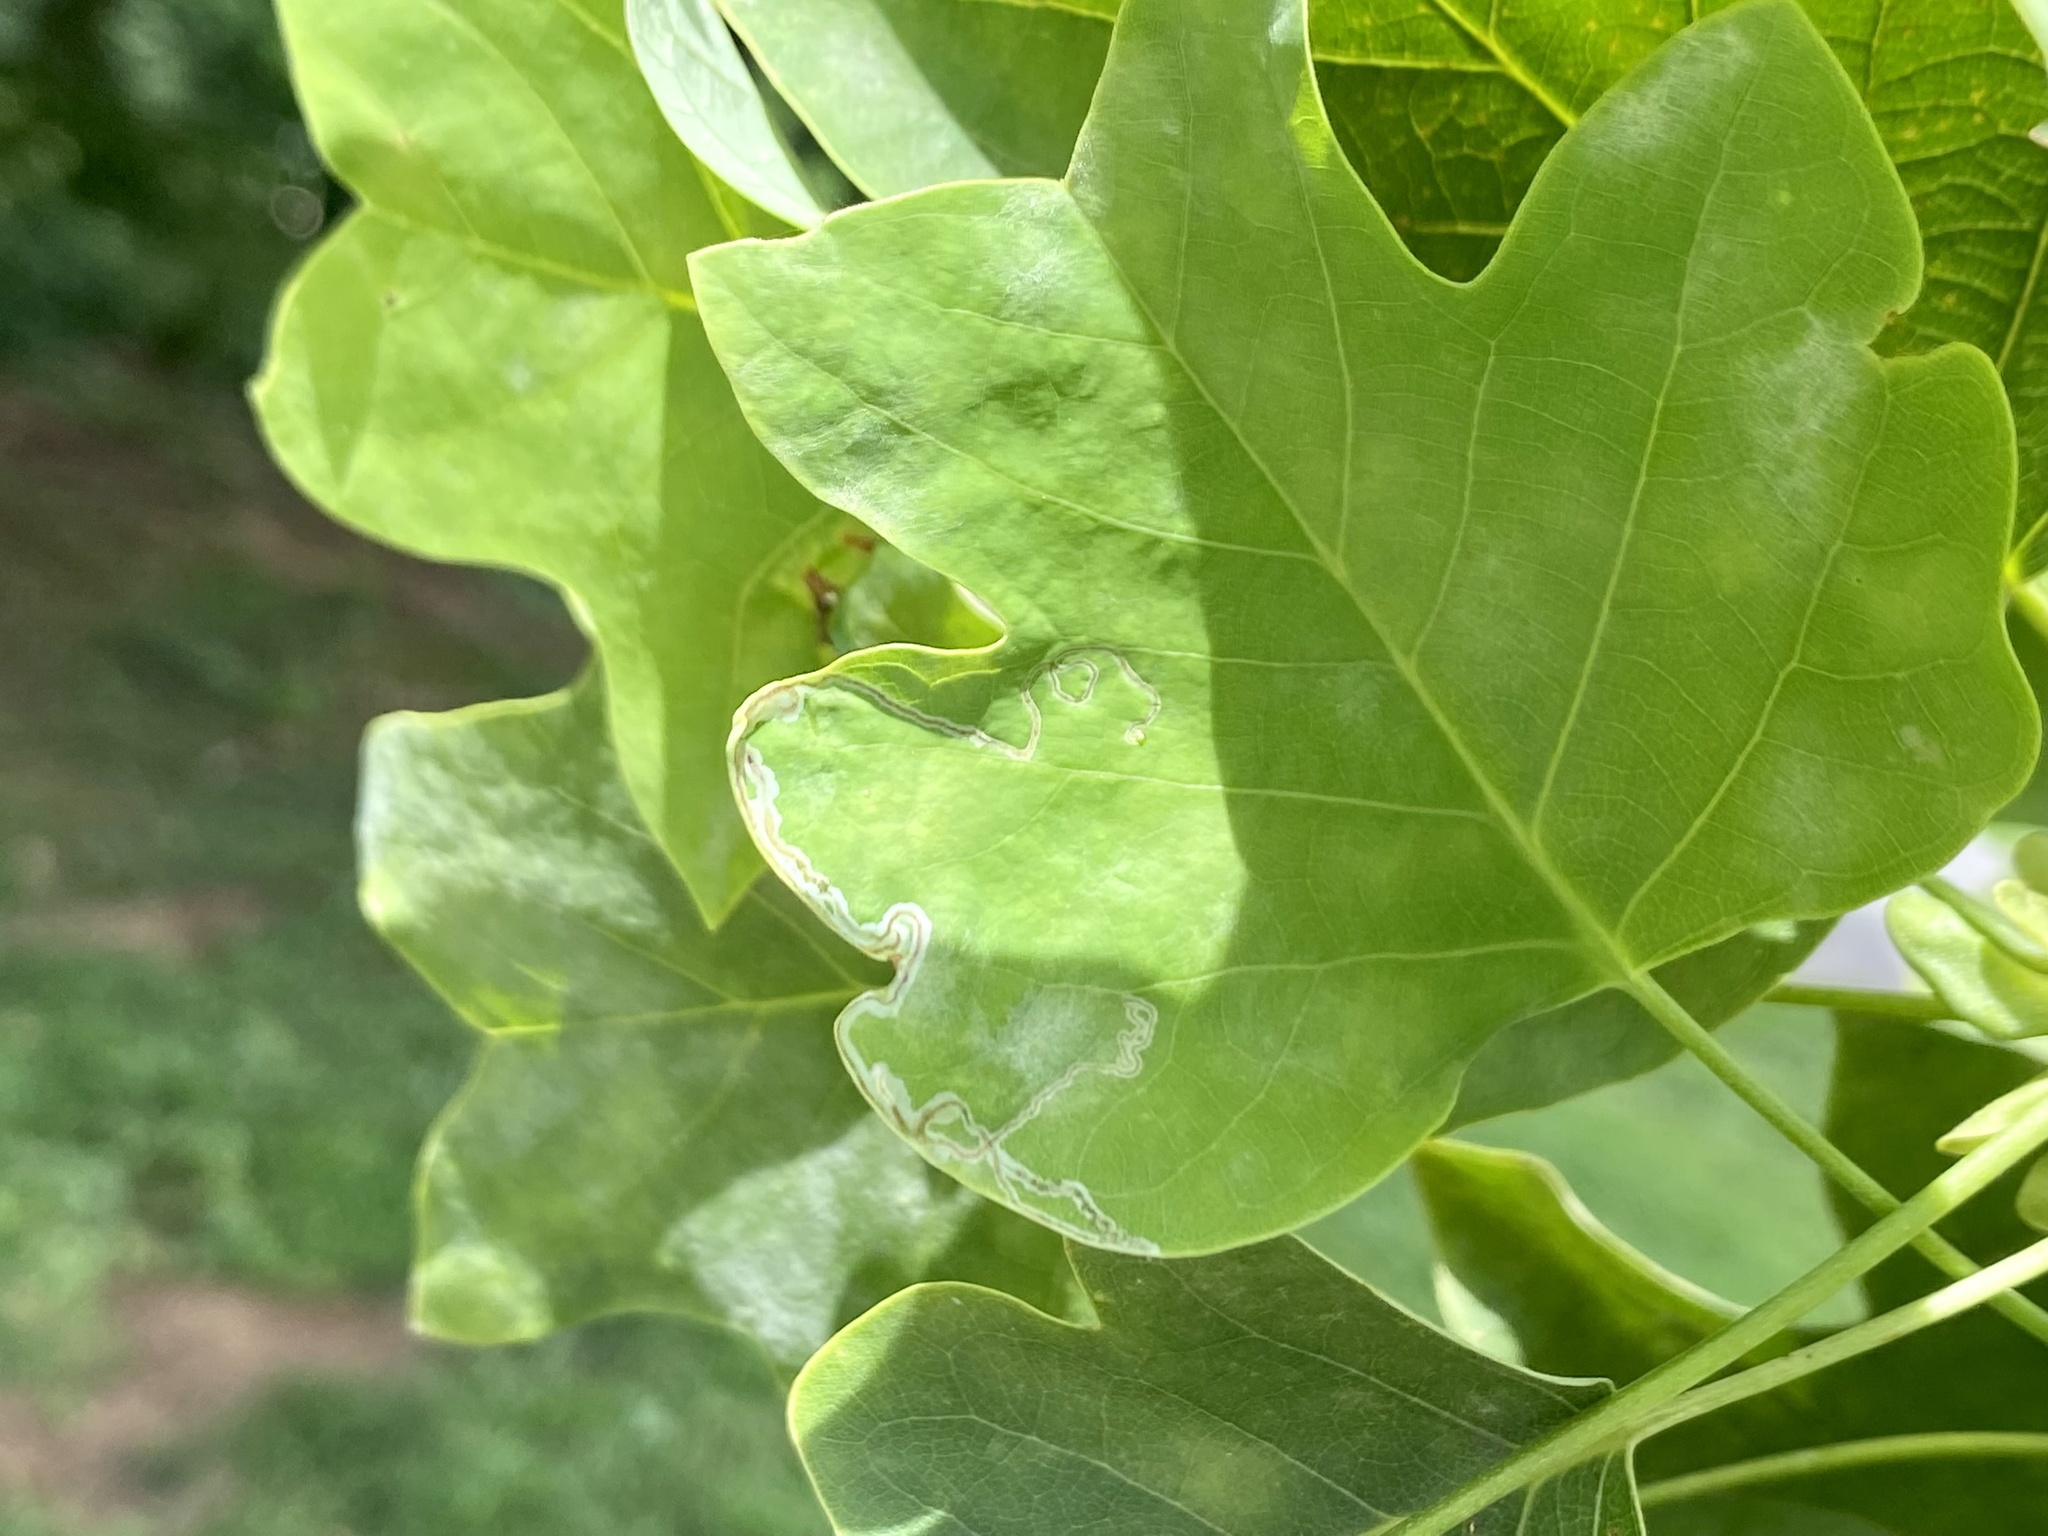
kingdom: Animalia
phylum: Arthropoda
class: Insecta
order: Lepidoptera
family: Gracillariidae
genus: Phyllocnistis
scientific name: Phyllocnistis liriodendronella
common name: Tulip tree leaf miner
